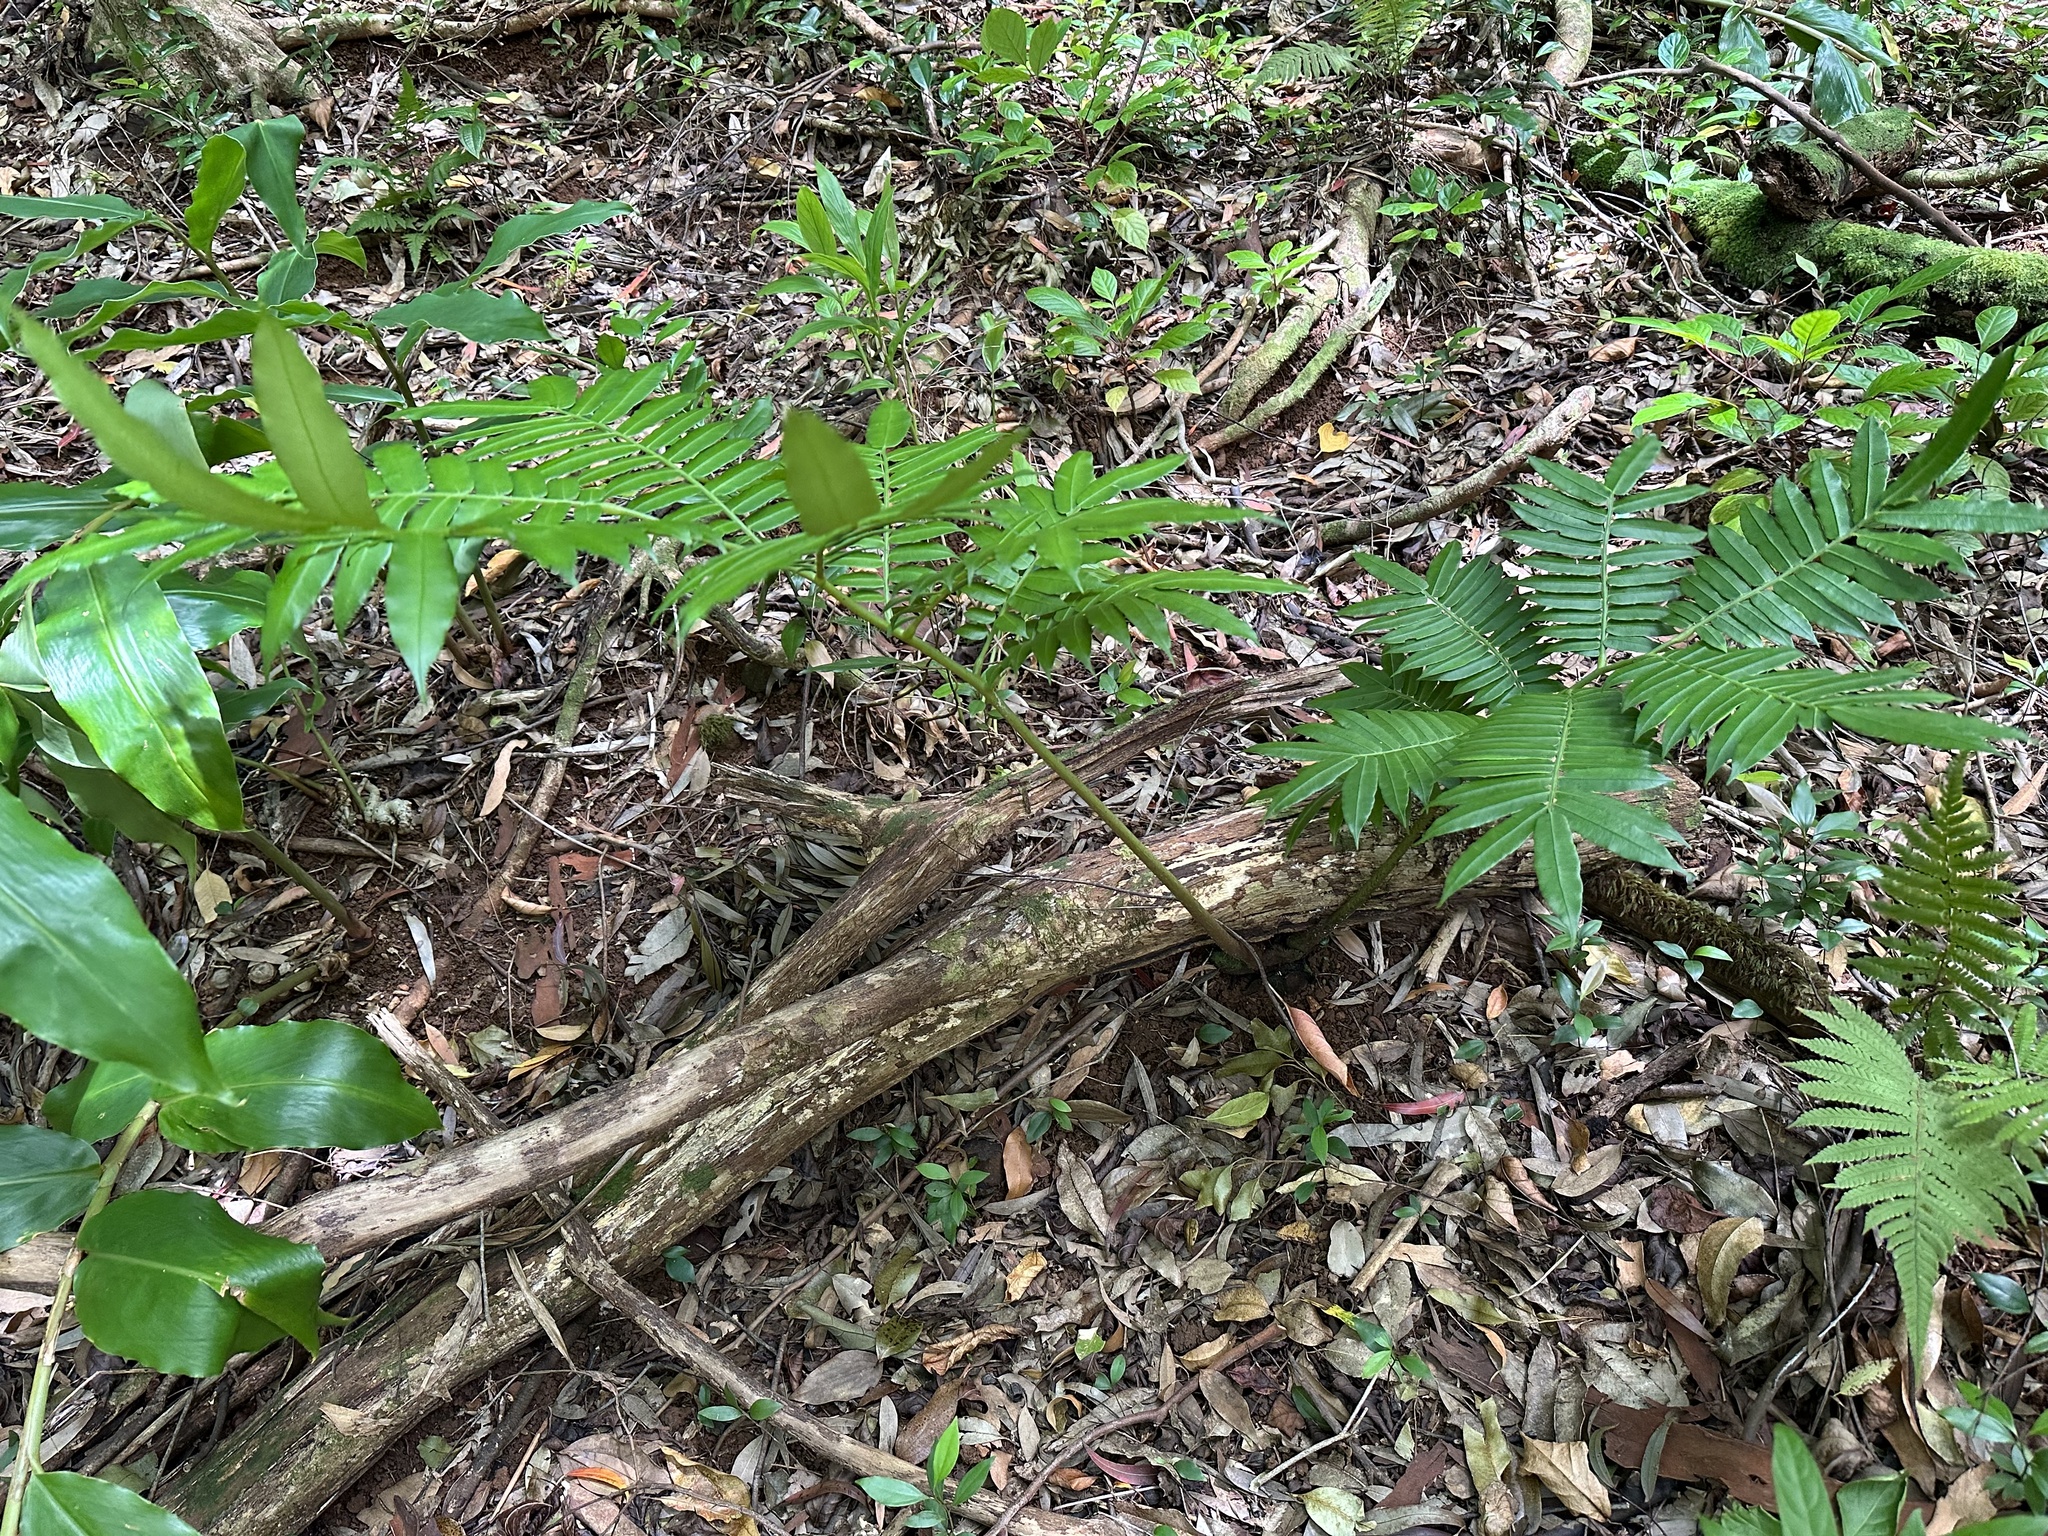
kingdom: Plantae
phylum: Tracheophyta
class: Polypodiopsida
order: Marattiales
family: Marattiaceae
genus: Angiopteris
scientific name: Angiopteris evecta
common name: Mule's-foot fern
